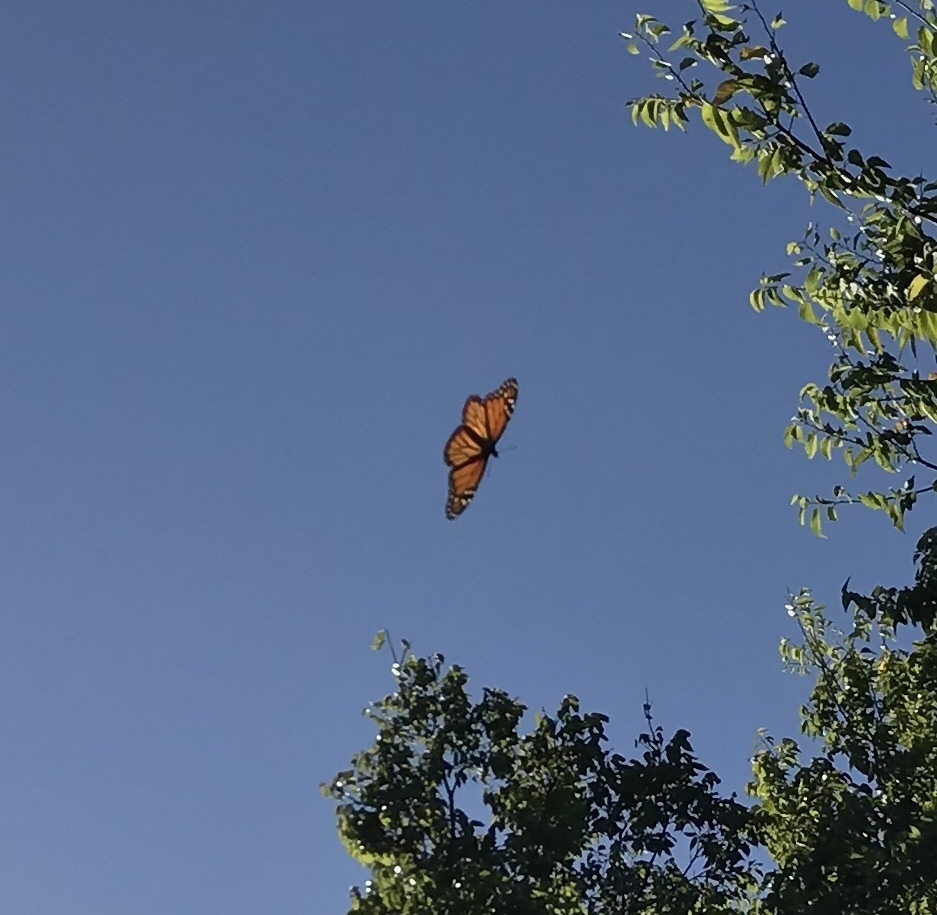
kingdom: Animalia
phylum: Arthropoda
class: Insecta
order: Lepidoptera
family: Nymphalidae
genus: Danaus
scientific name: Danaus plexippus
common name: Monarch
